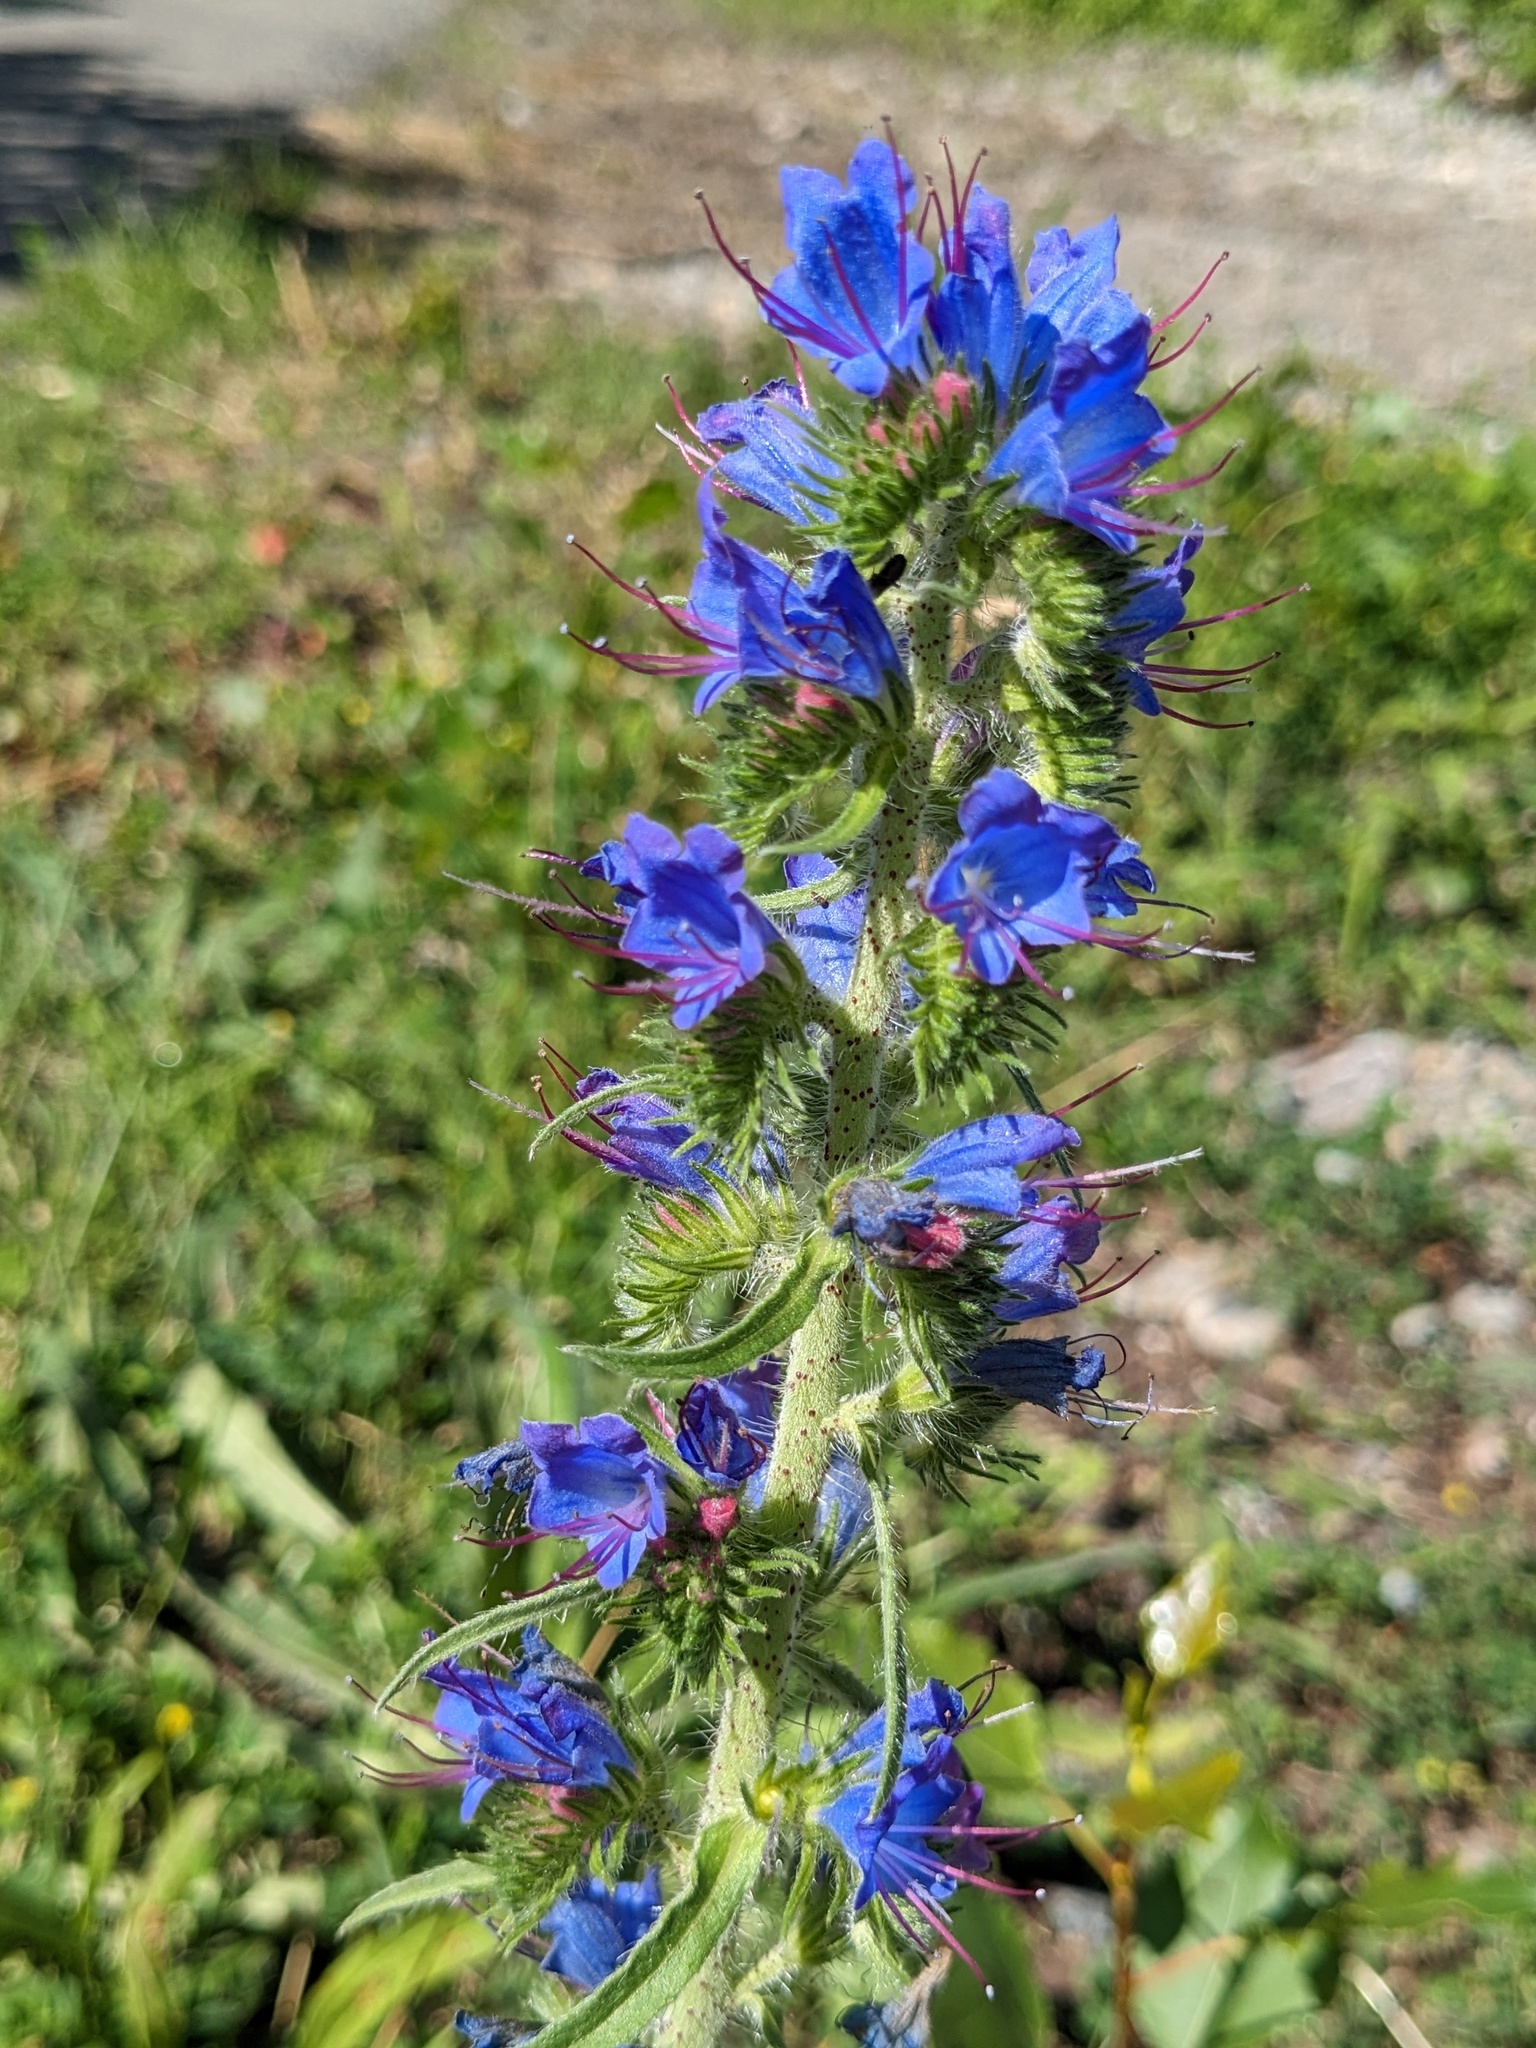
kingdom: Plantae
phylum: Tracheophyta
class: Magnoliopsida
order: Boraginales
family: Boraginaceae
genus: Echium
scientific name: Echium vulgare
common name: Common viper's bugloss
